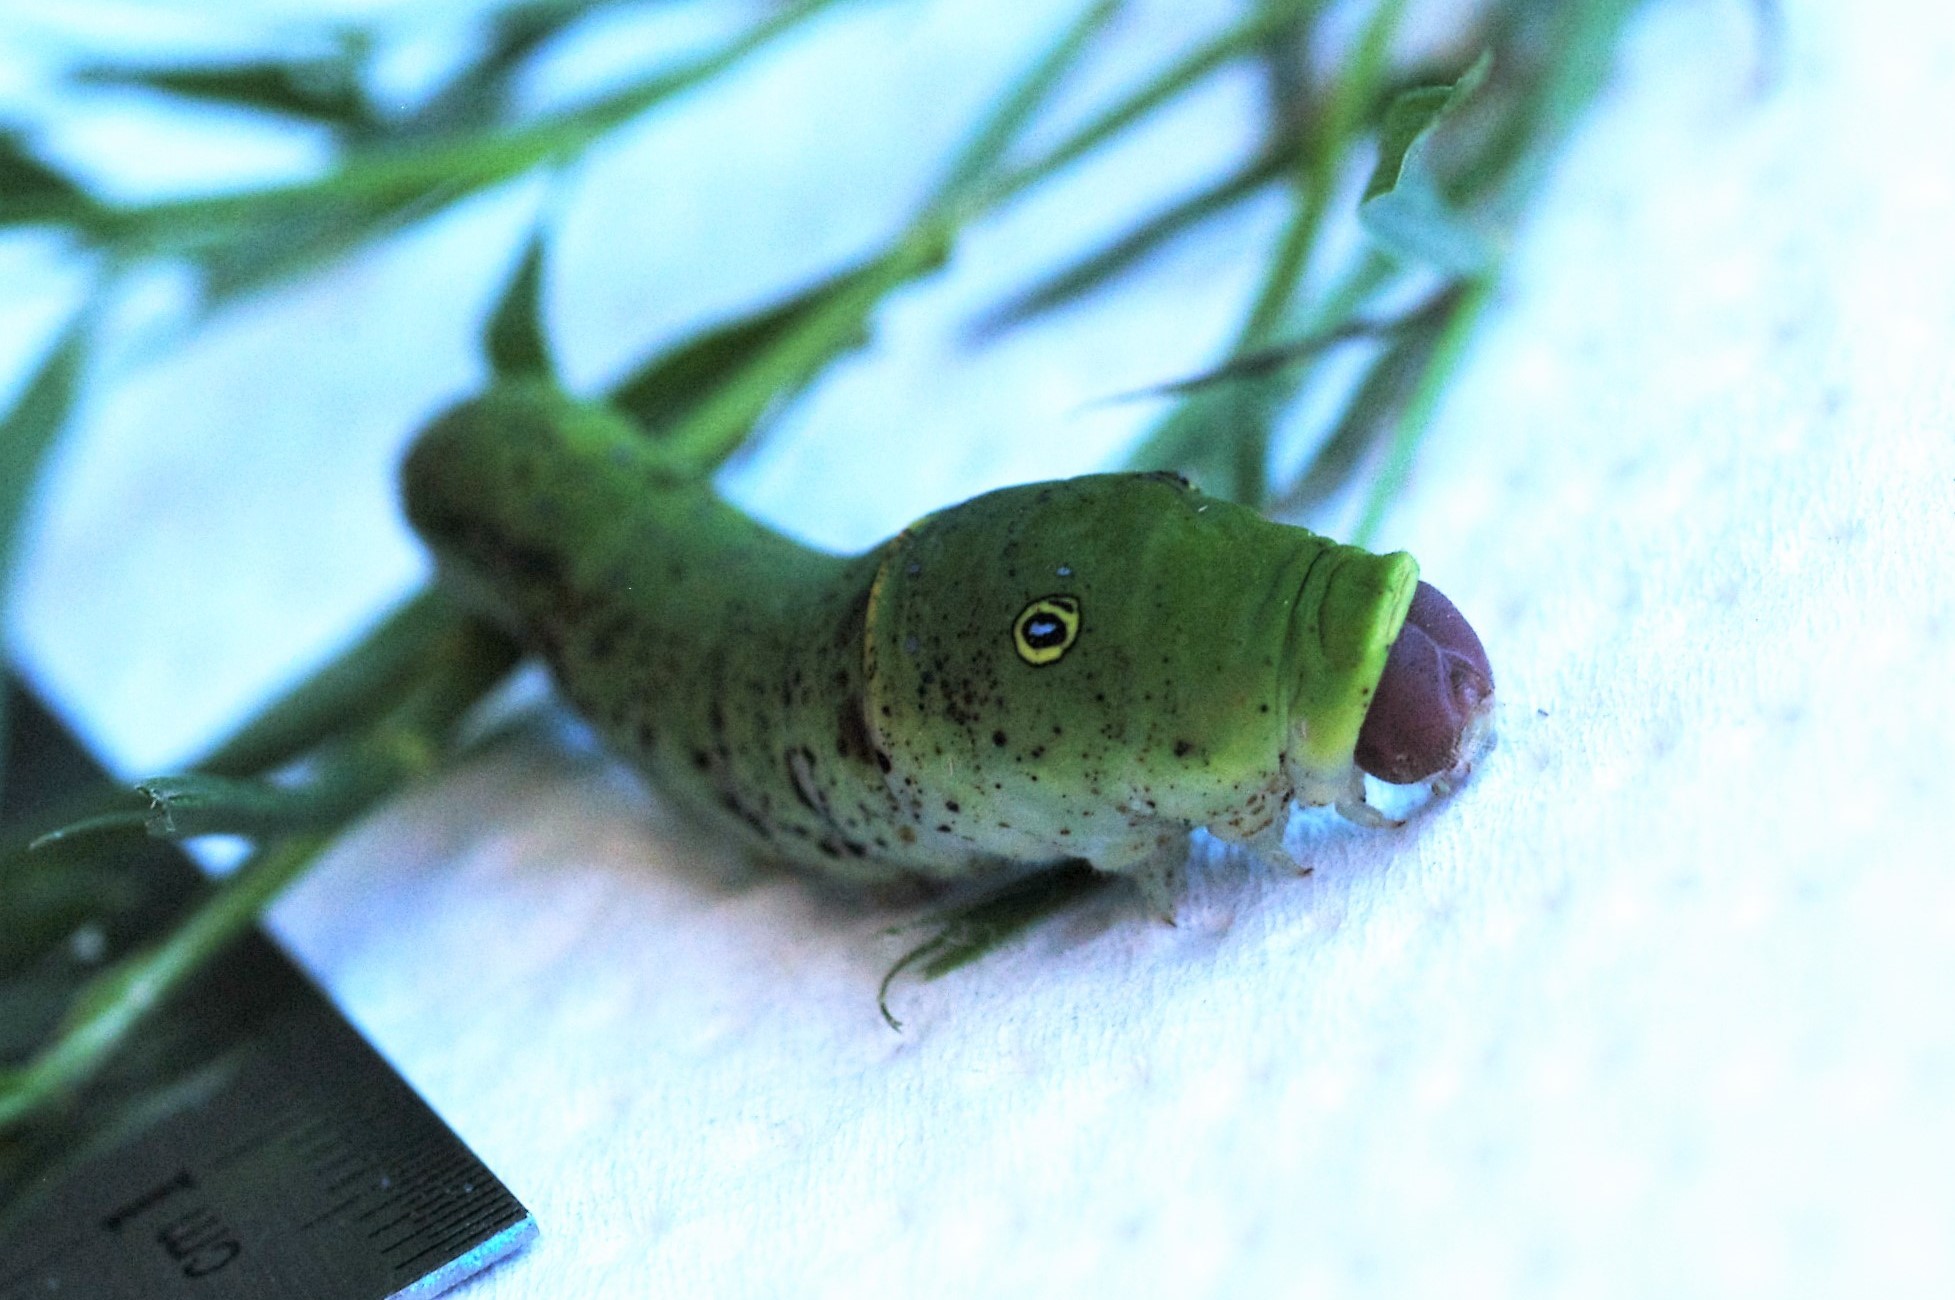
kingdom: Animalia
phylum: Arthropoda
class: Insecta
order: Lepidoptera
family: Papilionidae
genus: Papilio
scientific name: Papilio glaucus
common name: Tiger swallowtail
